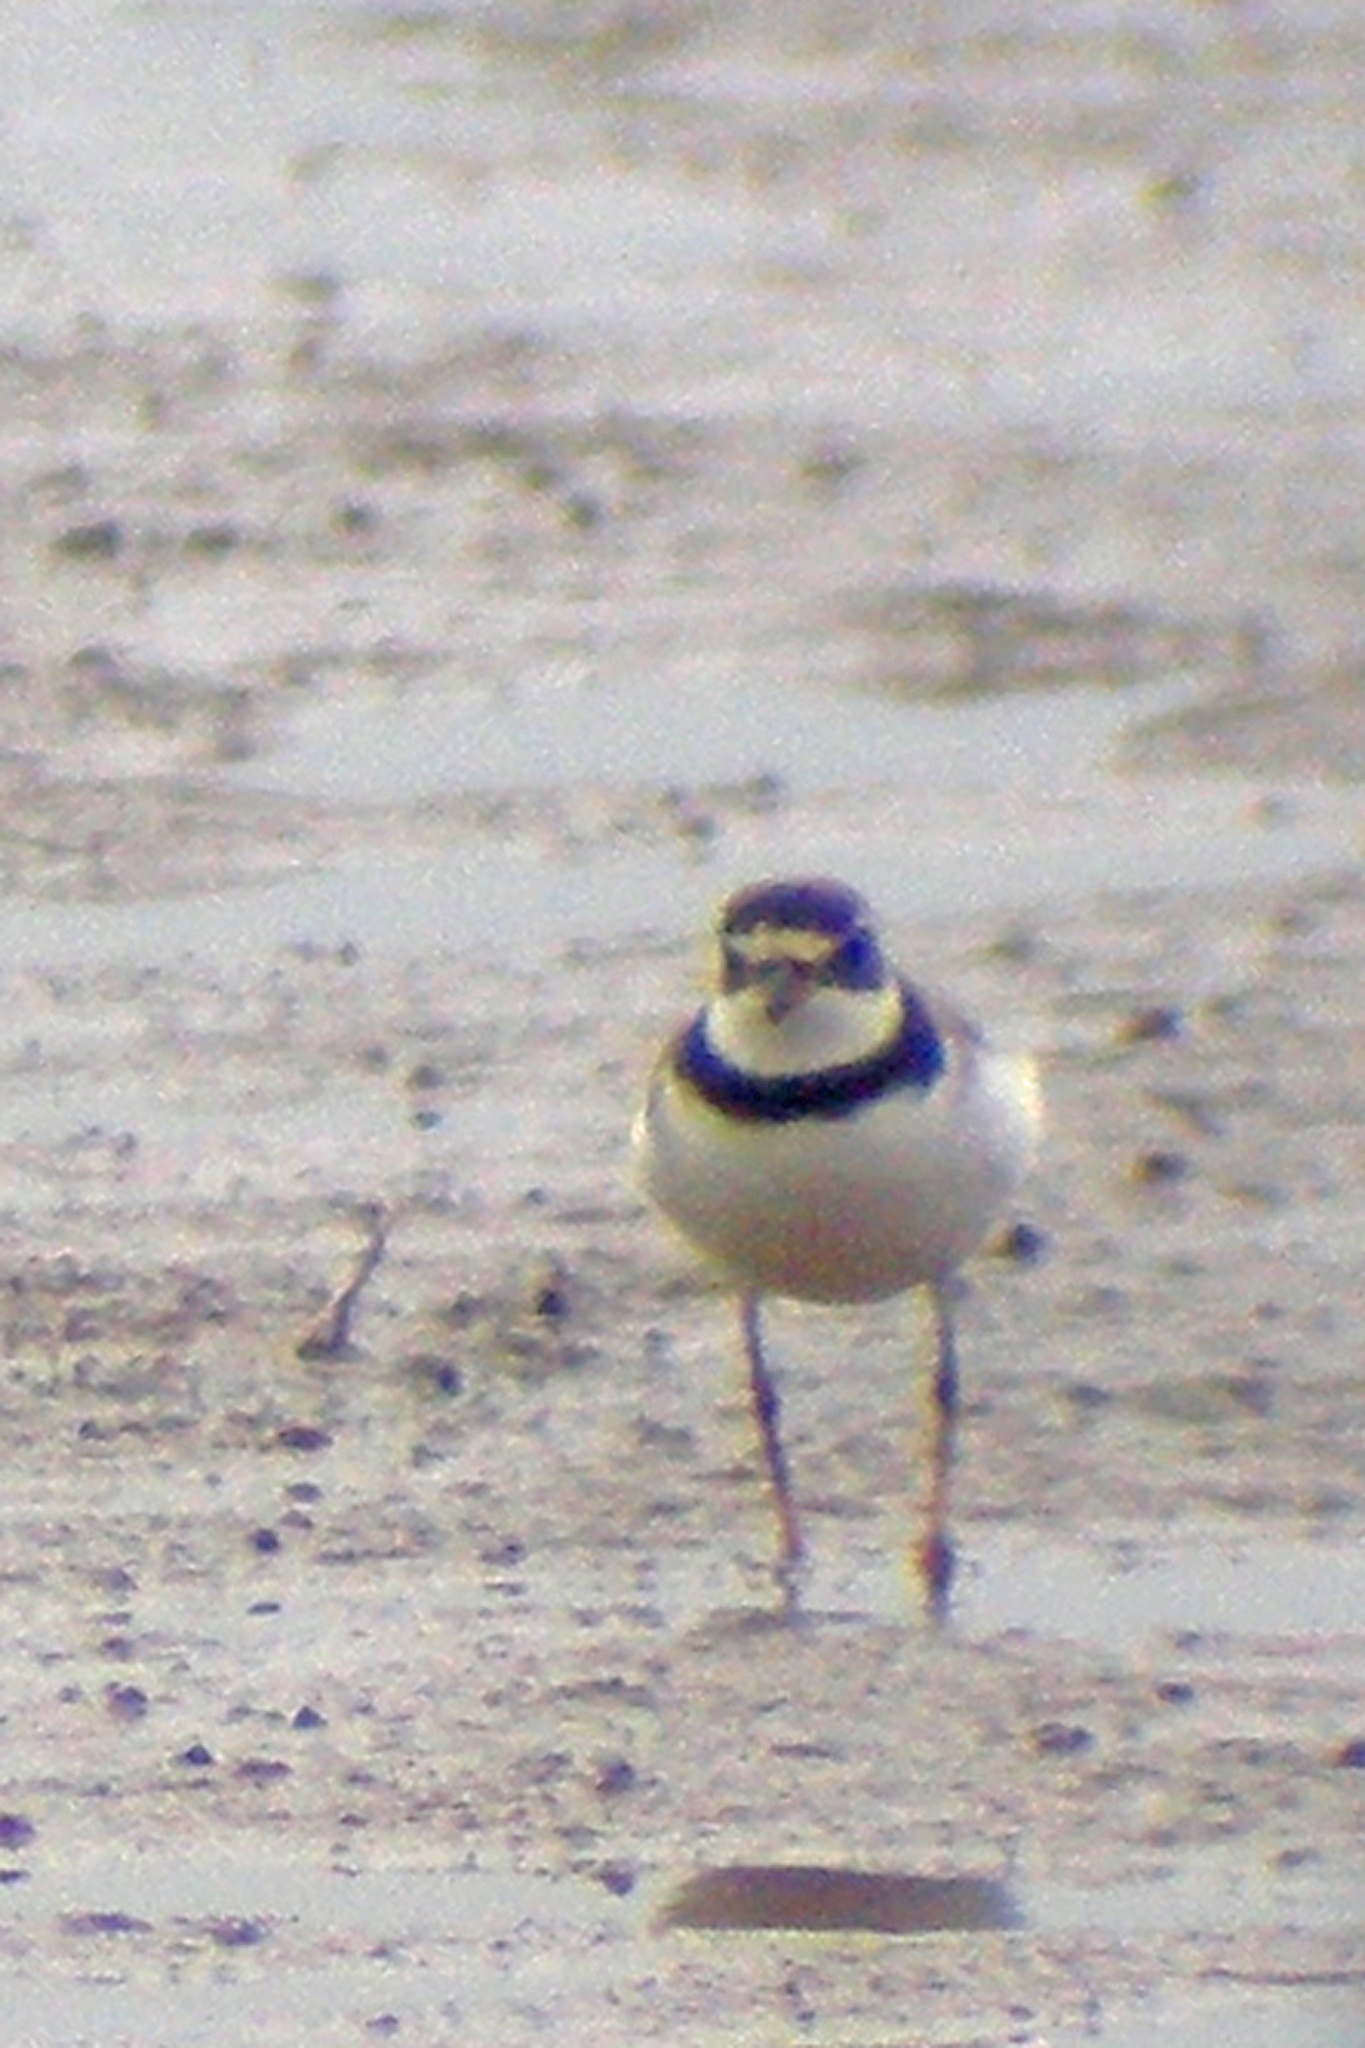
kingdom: Animalia
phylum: Chordata
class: Aves
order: Charadriiformes
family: Charadriidae
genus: Charadrius
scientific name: Charadrius semipalmatus
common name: Semipalmated plover
